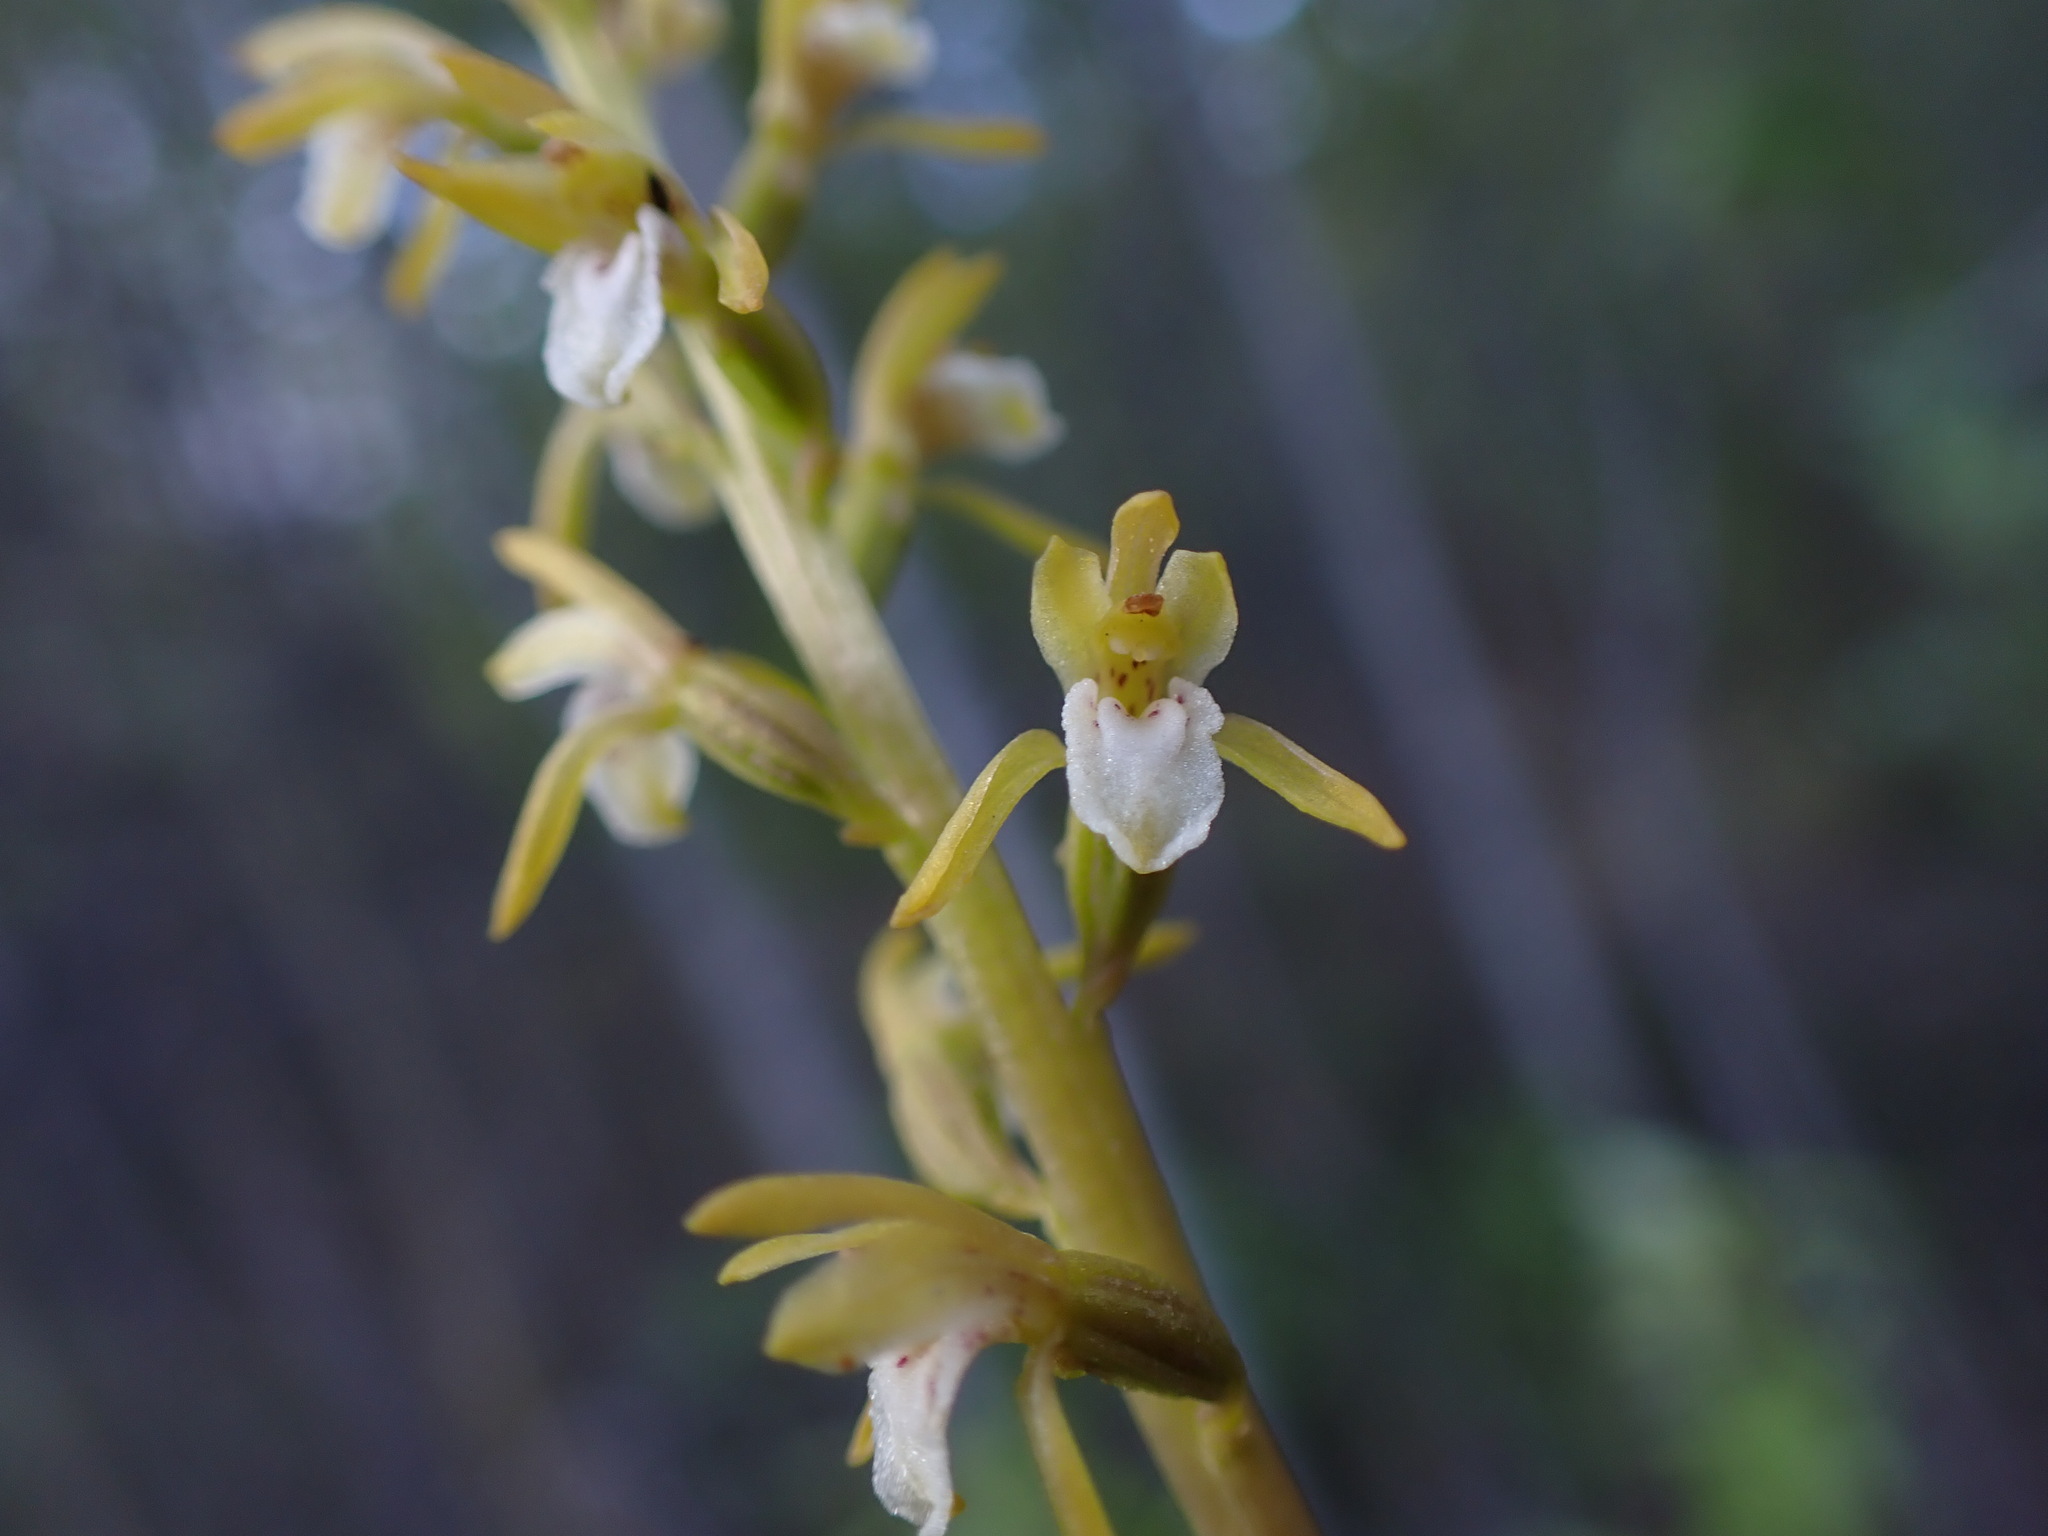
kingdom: Plantae
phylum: Tracheophyta
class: Liliopsida
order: Asparagales
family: Orchidaceae
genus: Corallorhiza
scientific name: Corallorhiza trifida
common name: Yellow coralroot
